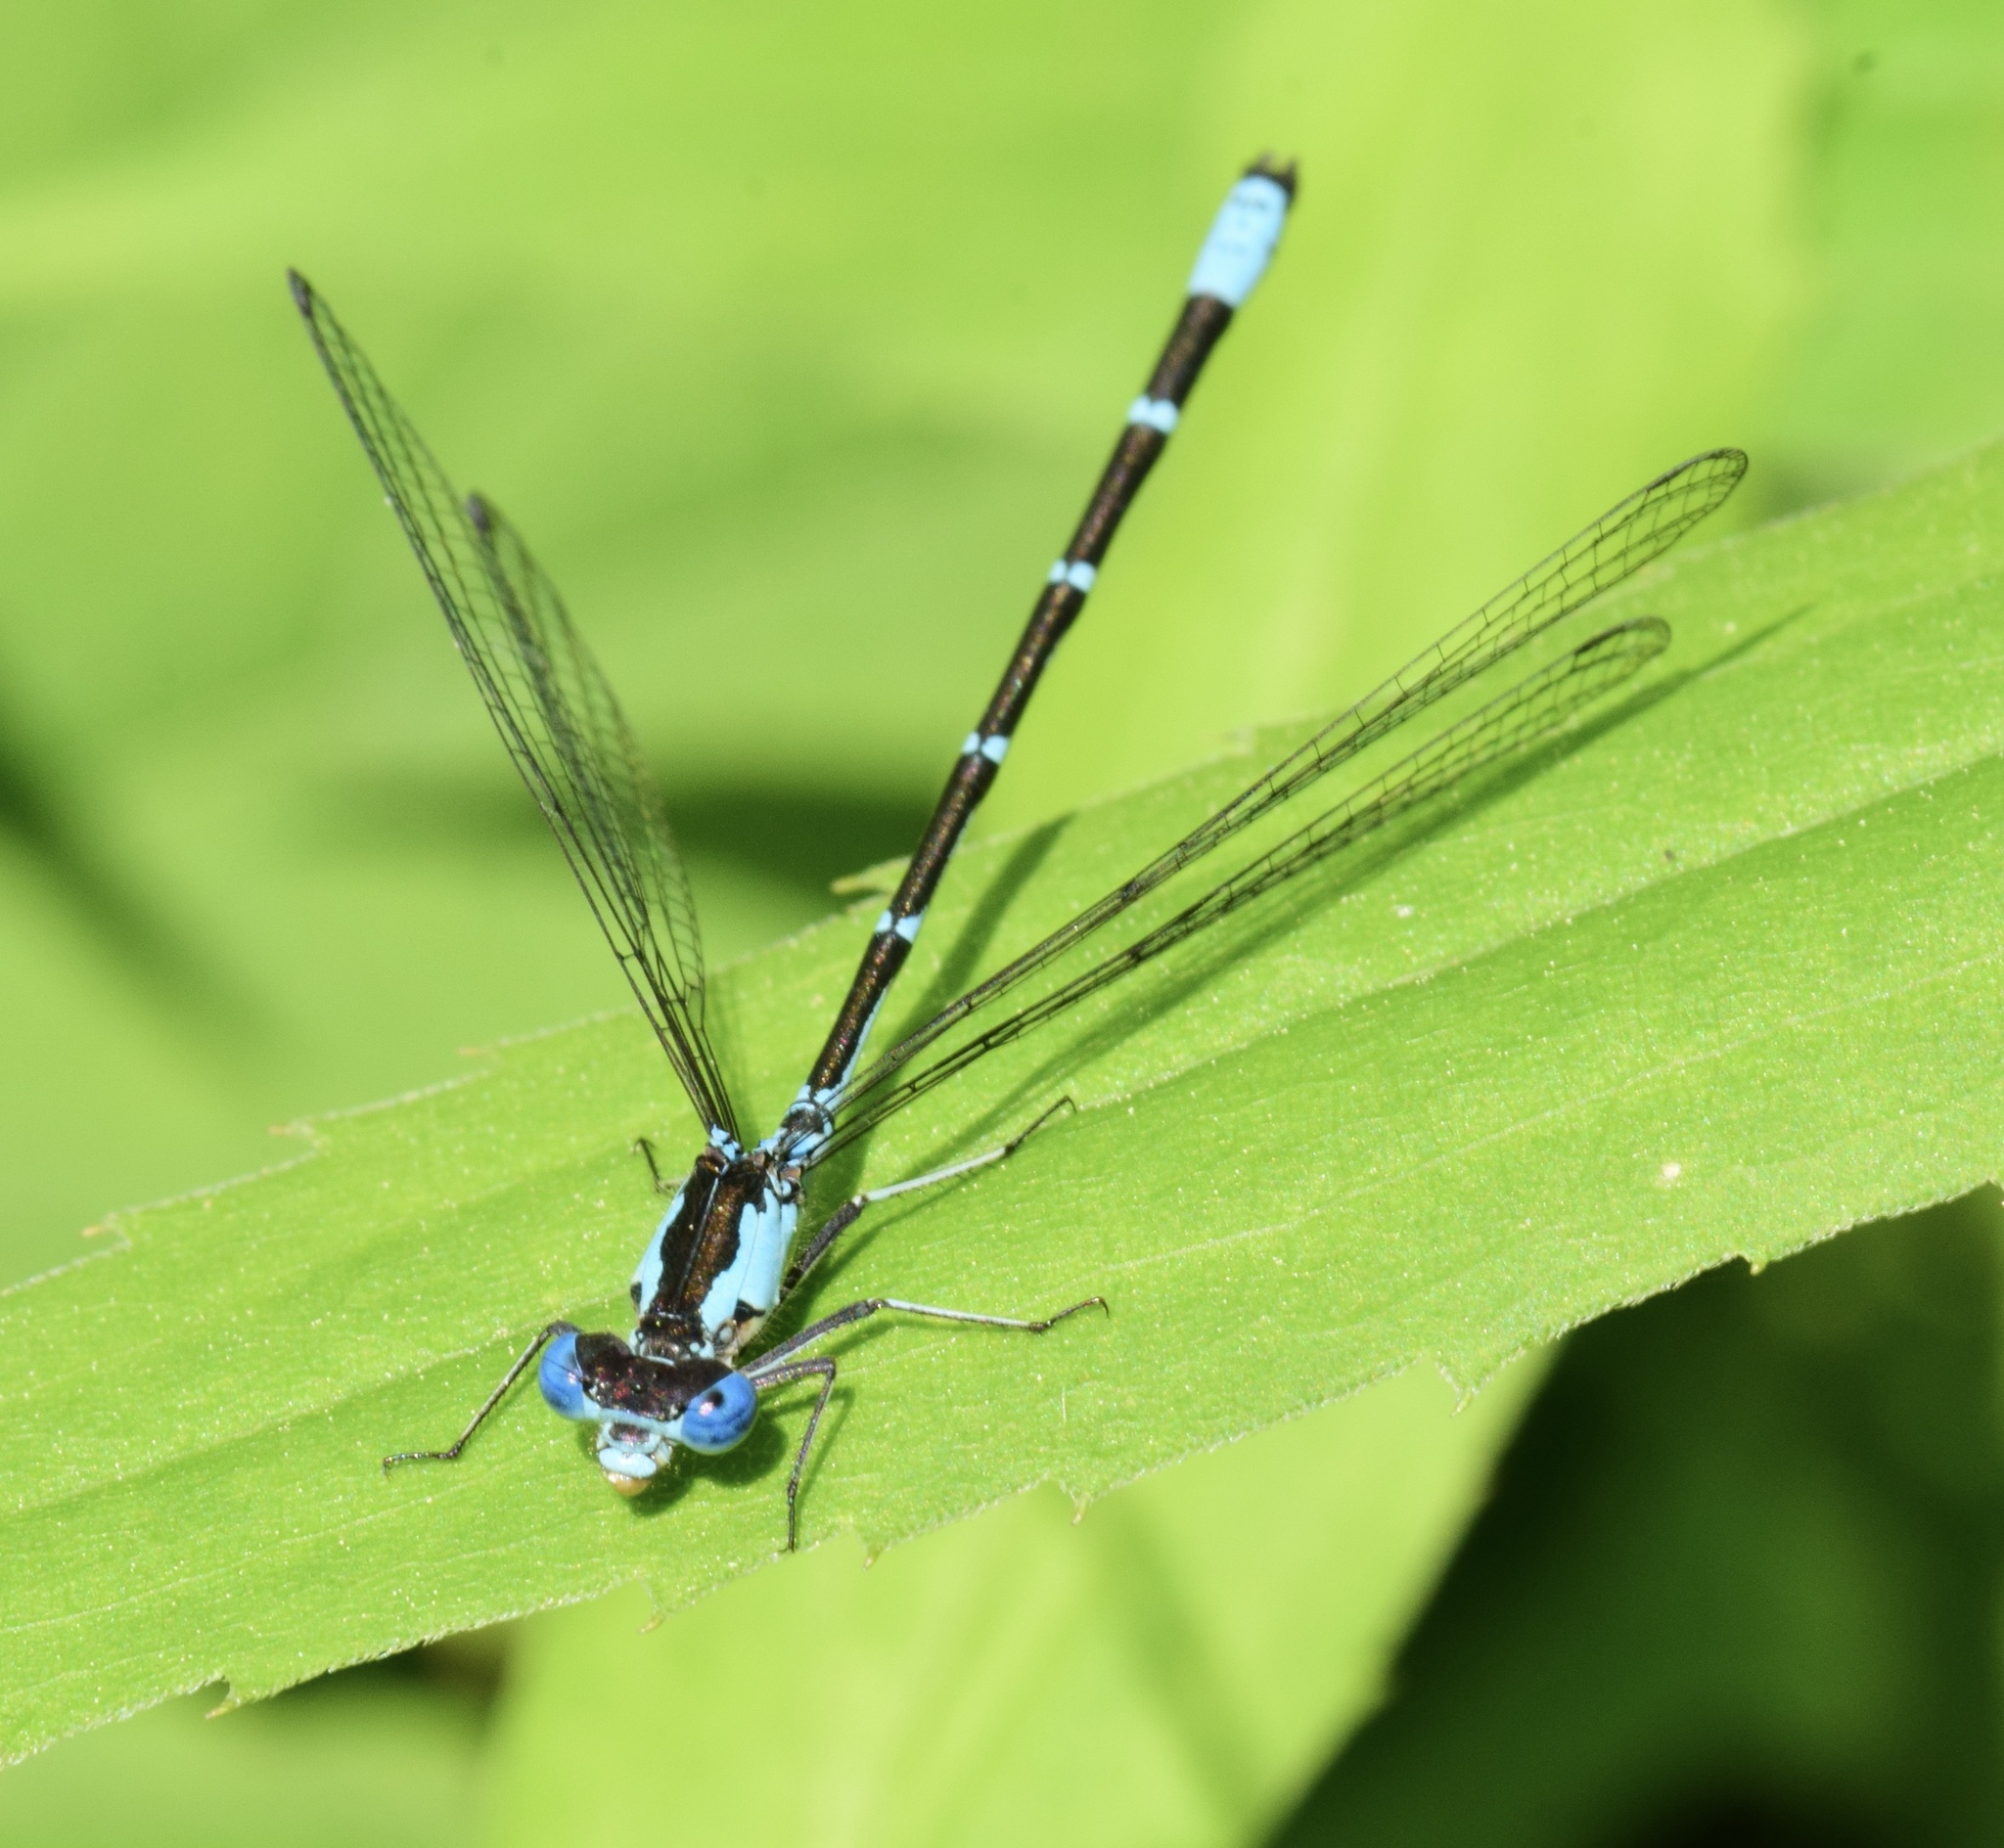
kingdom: Animalia
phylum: Arthropoda
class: Insecta
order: Odonata
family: Coenagrionidae
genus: Chromagrion
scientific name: Chromagrion conditum
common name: Aurora damsel
